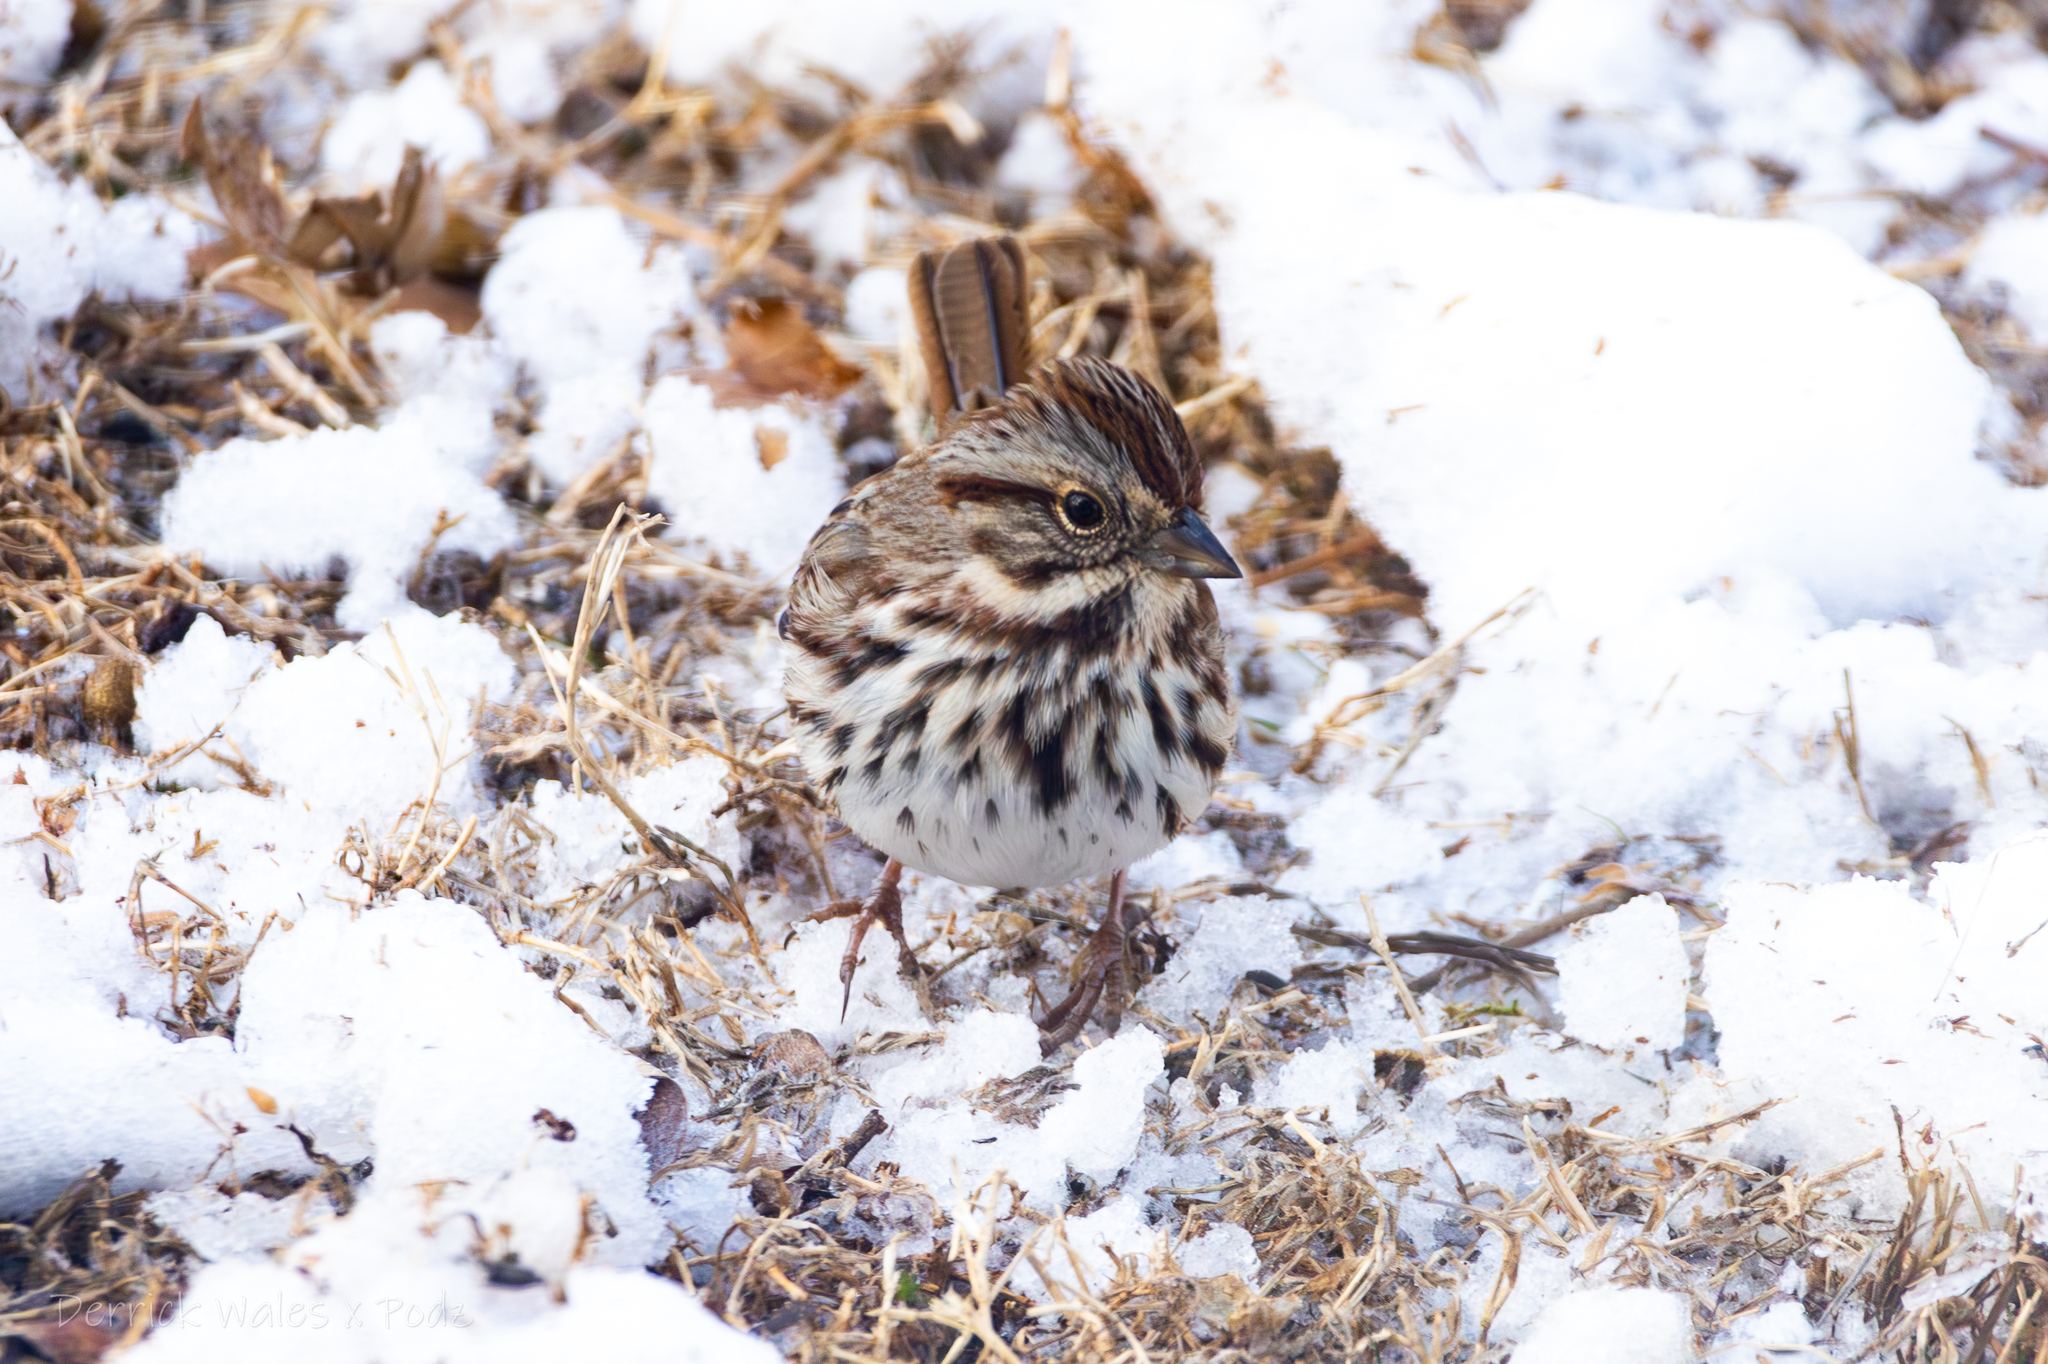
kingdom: Animalia
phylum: Chordata
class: Aves
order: Passeriformes
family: Passerellidae
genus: Melospiza
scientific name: Melospiza melodia
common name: Song sparrow
